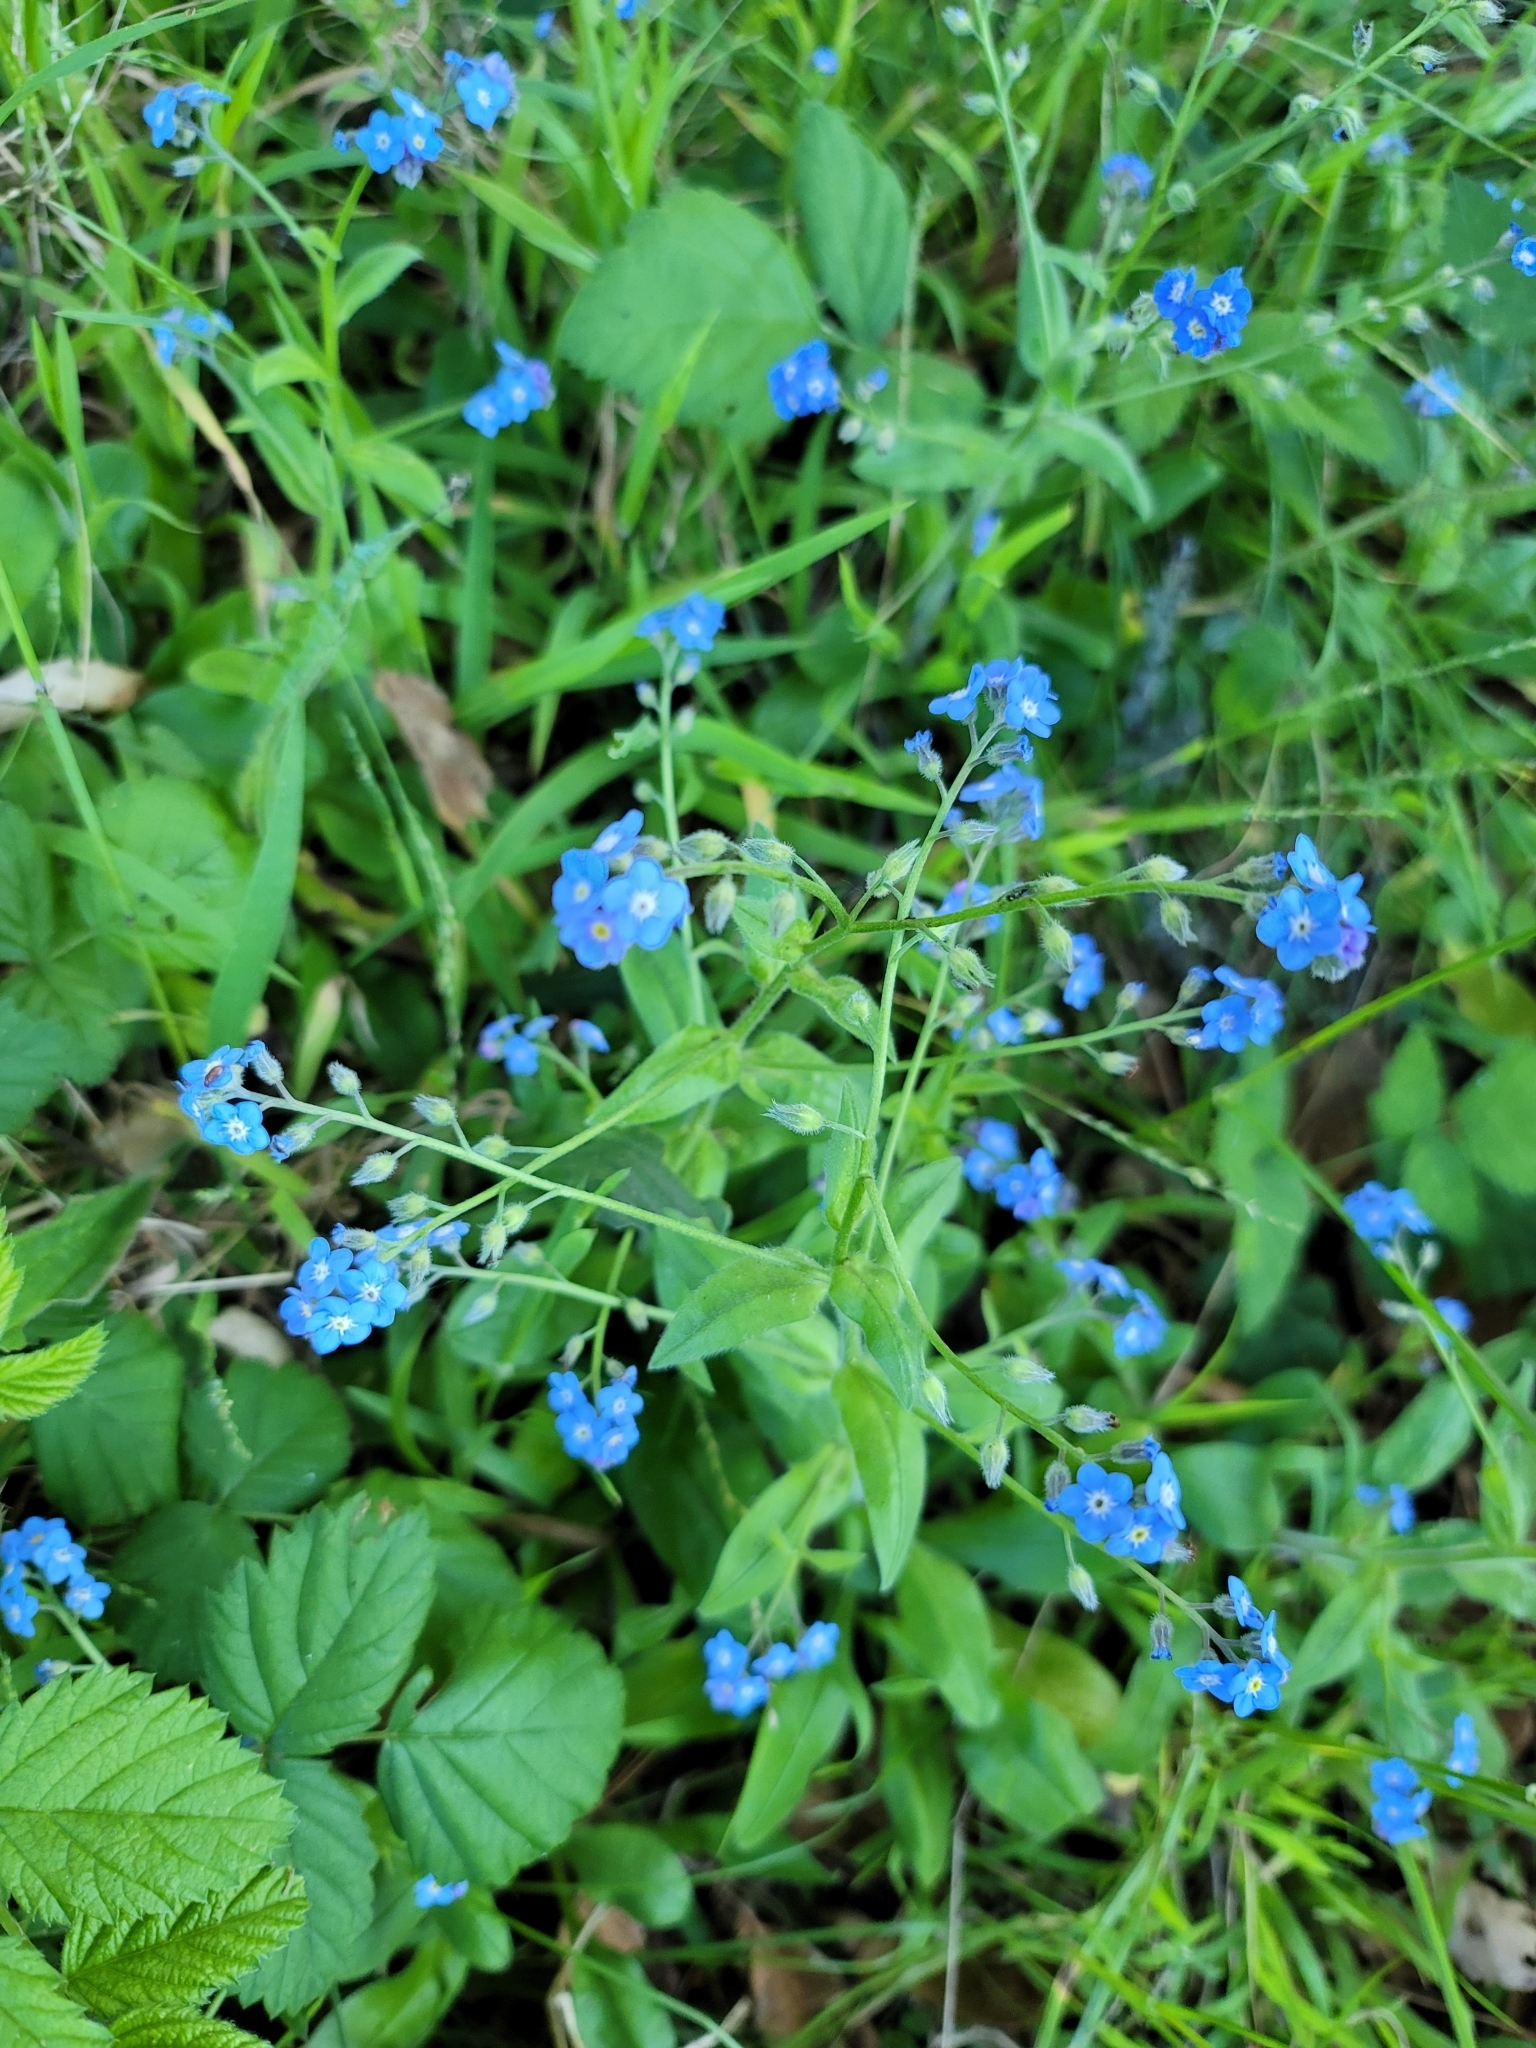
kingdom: Plantae
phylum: Tracheophyta
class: Magnoliopsida
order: Boraginales
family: Boraginaceae
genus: Myosotis
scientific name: Myosotis latifolia
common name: Broadleaf forget-me-not
